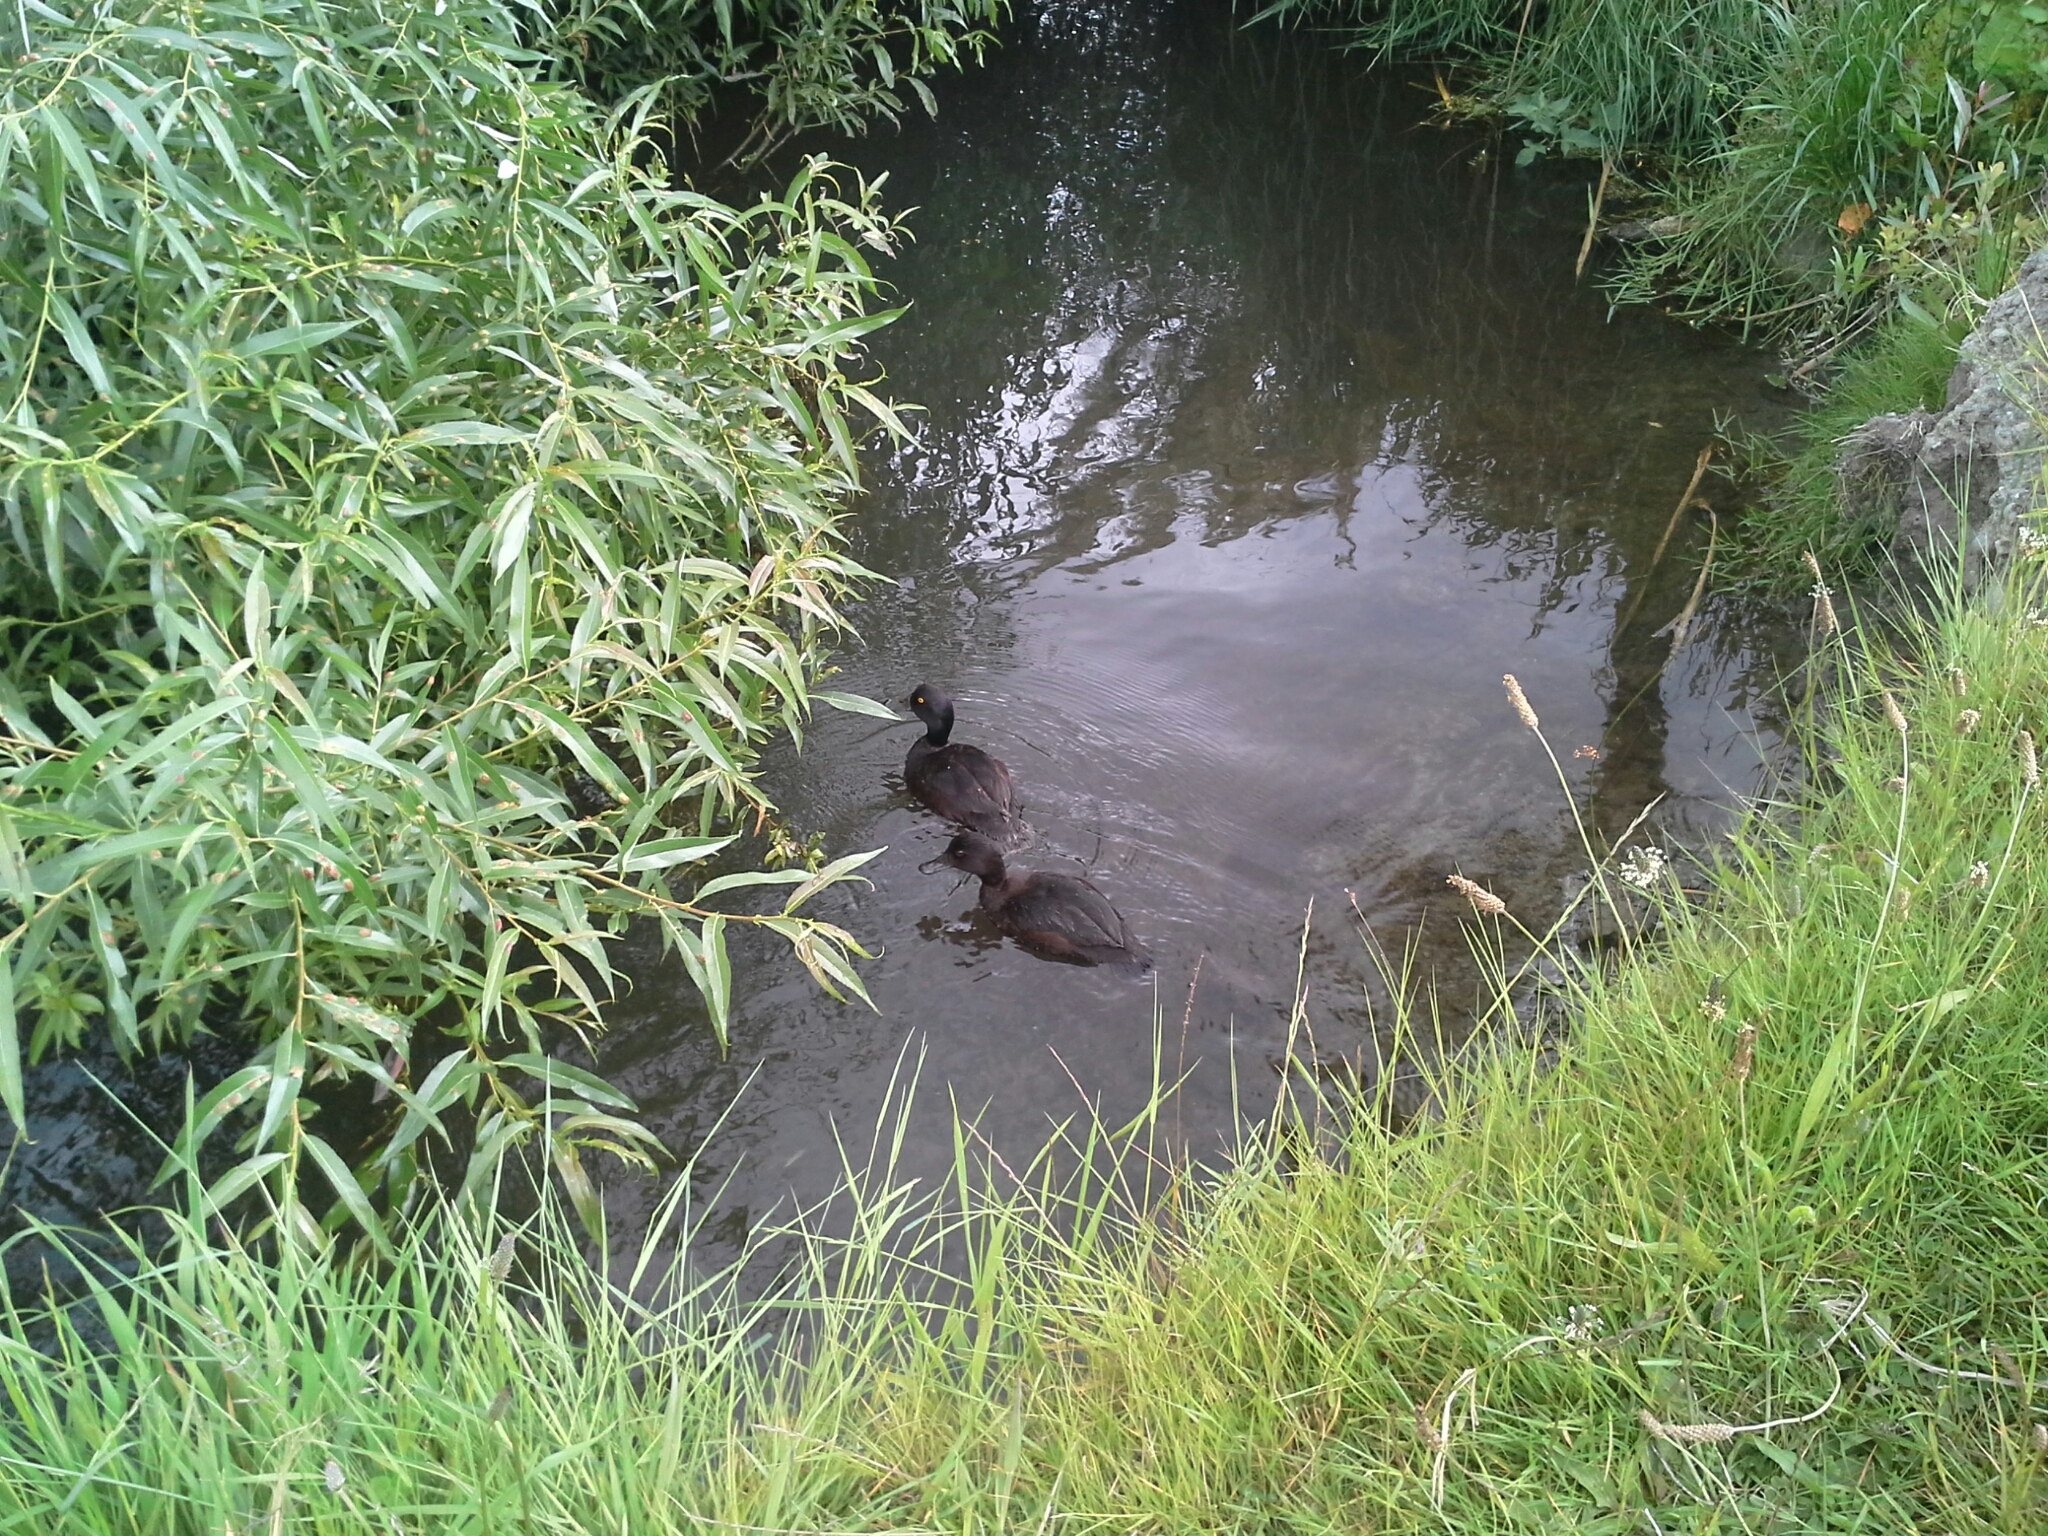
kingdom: Animalia
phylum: Chordata
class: Aves
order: Anseriformes
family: Anatidae
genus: Aythya
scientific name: Aythya novaeseelandiae
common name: New zealand scaup
